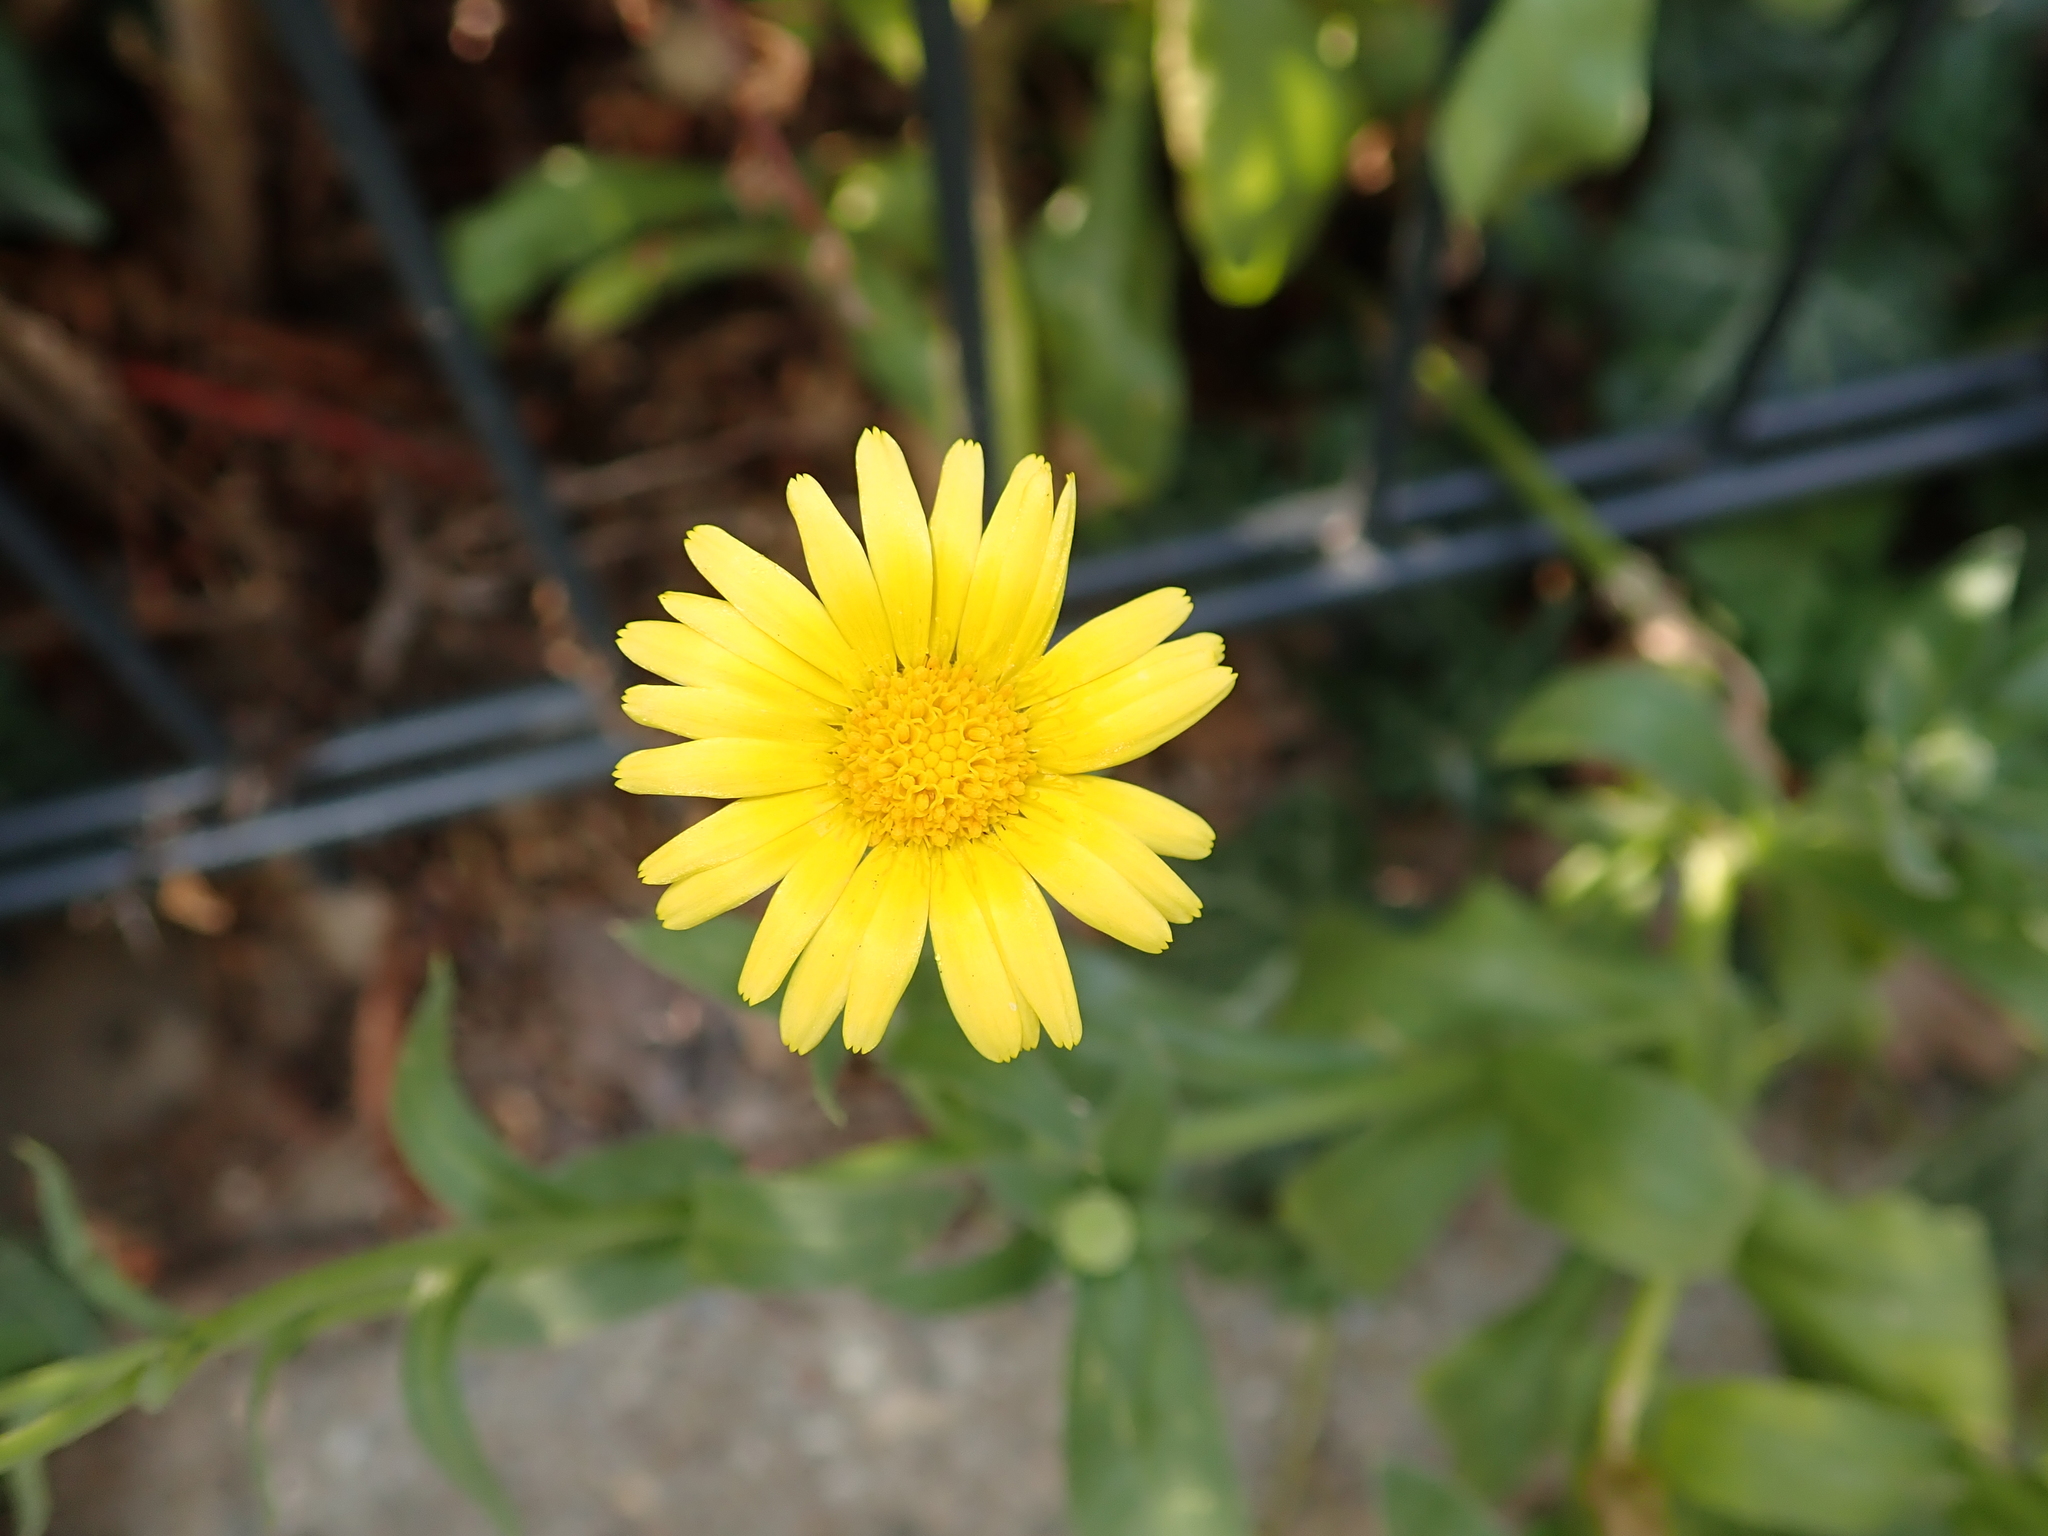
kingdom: Plantae
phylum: Tracheophyta
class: Magnoliopsida
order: Asterales
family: Asteraceae
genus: Calendula
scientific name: Calendula officinalis
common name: Pot marigold
